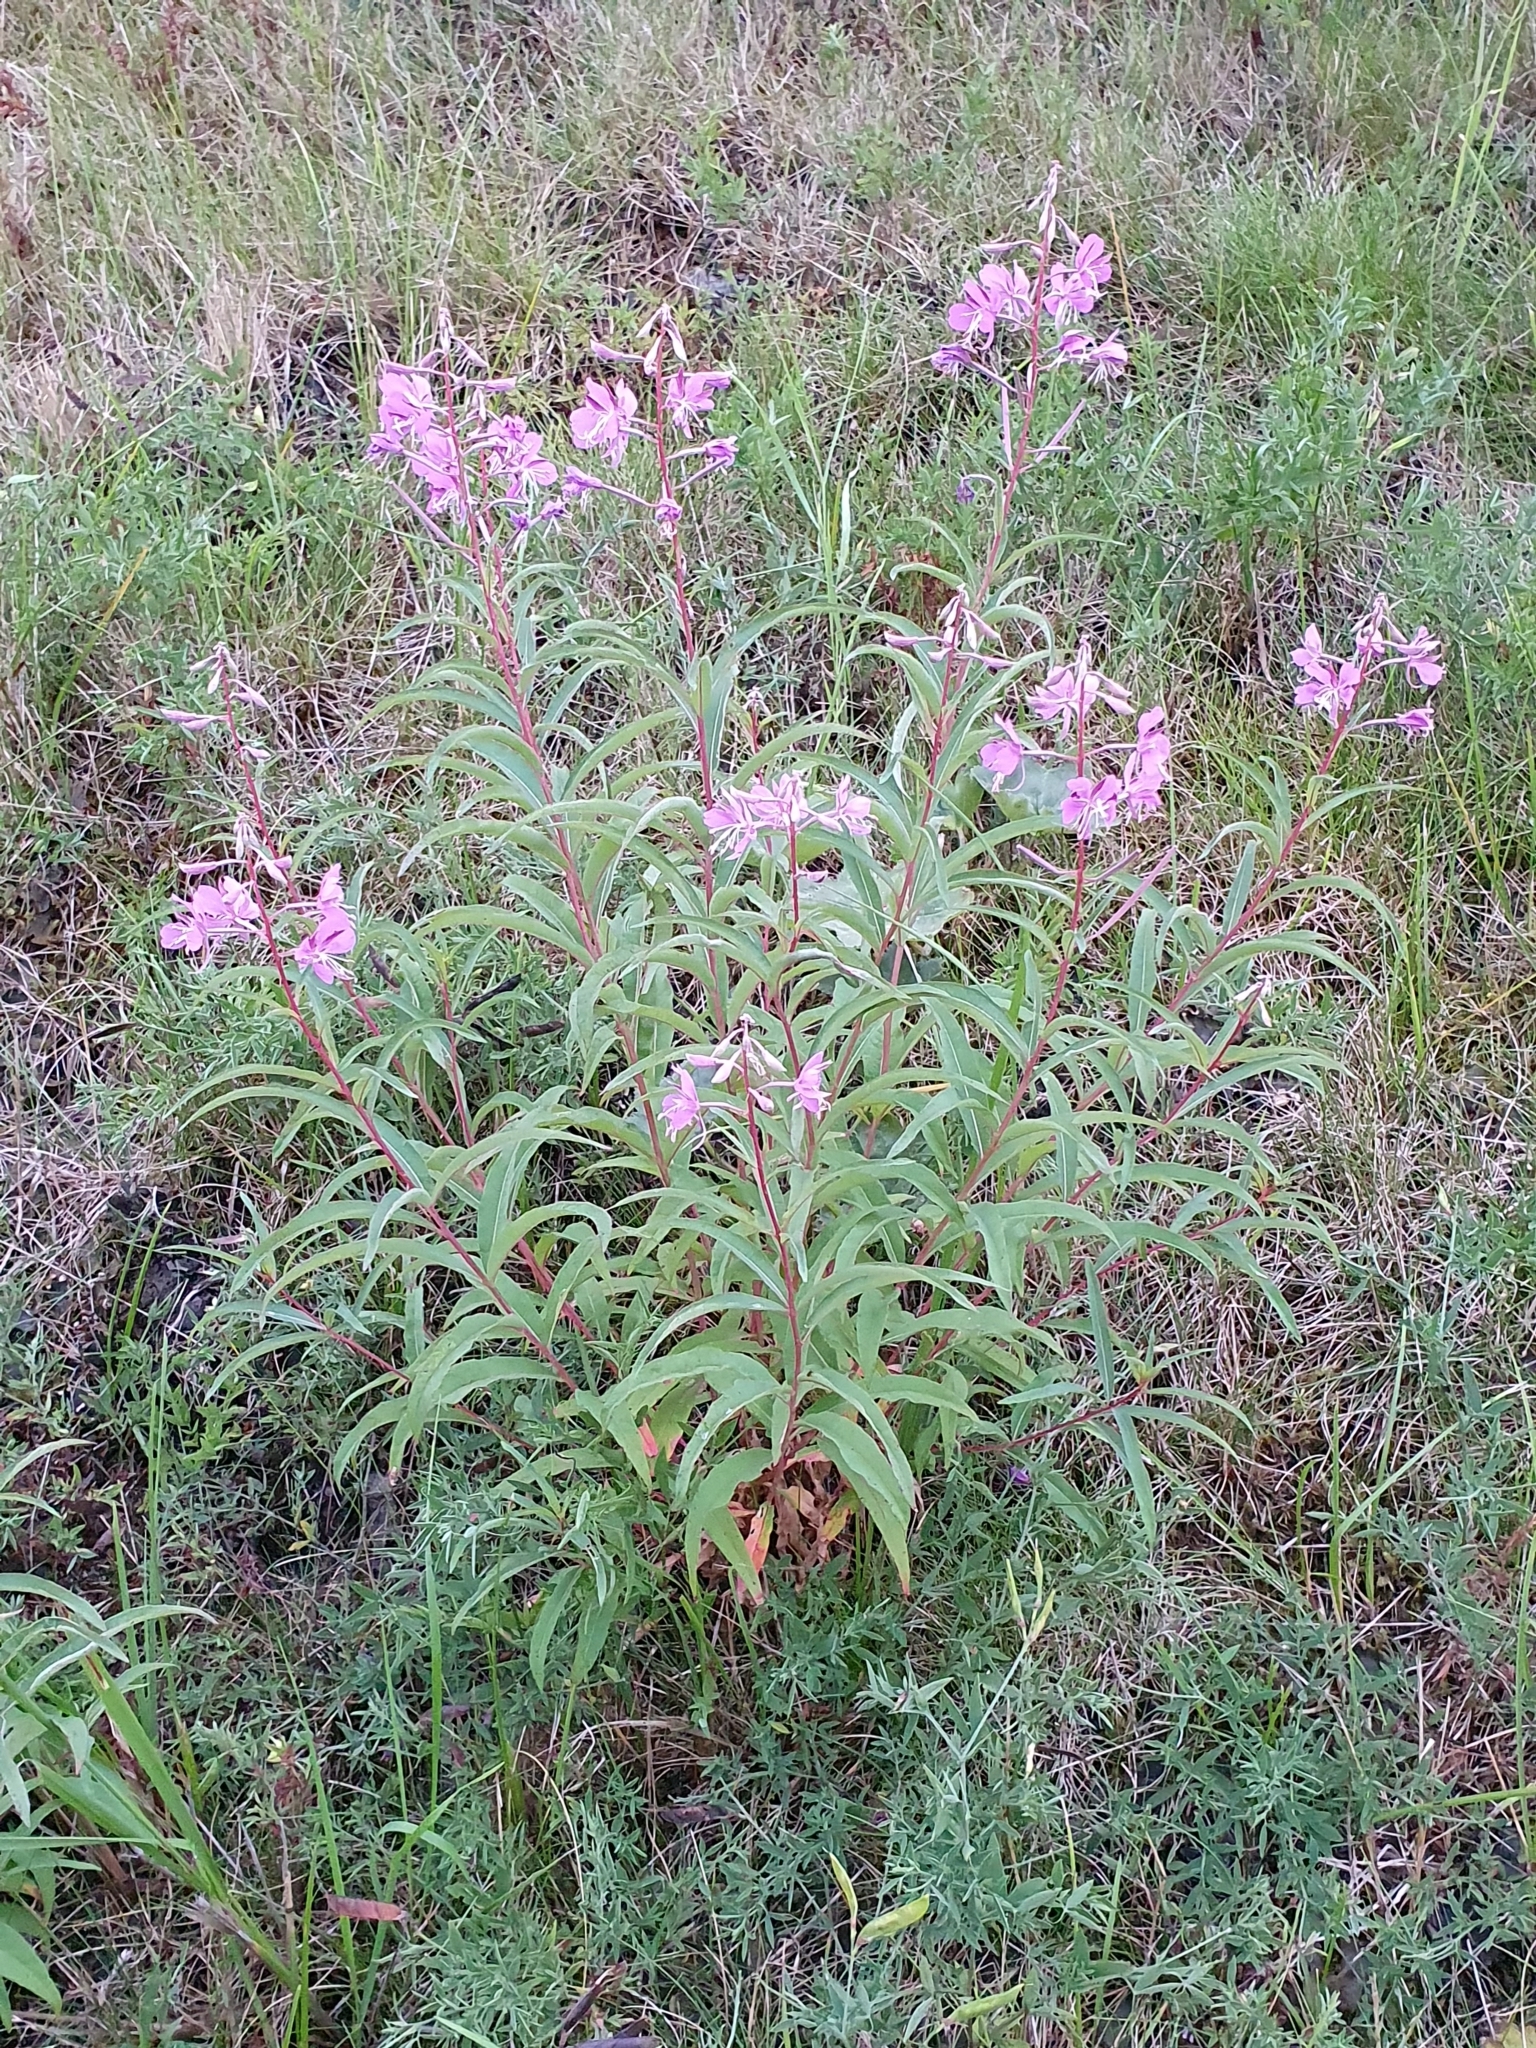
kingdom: Plantae
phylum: Tracheophyta
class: Magnoliopsida
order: Myrtales
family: Onagraceae
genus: Chamaenerion
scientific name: Chamaenerion angustifolium
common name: Fireweed
